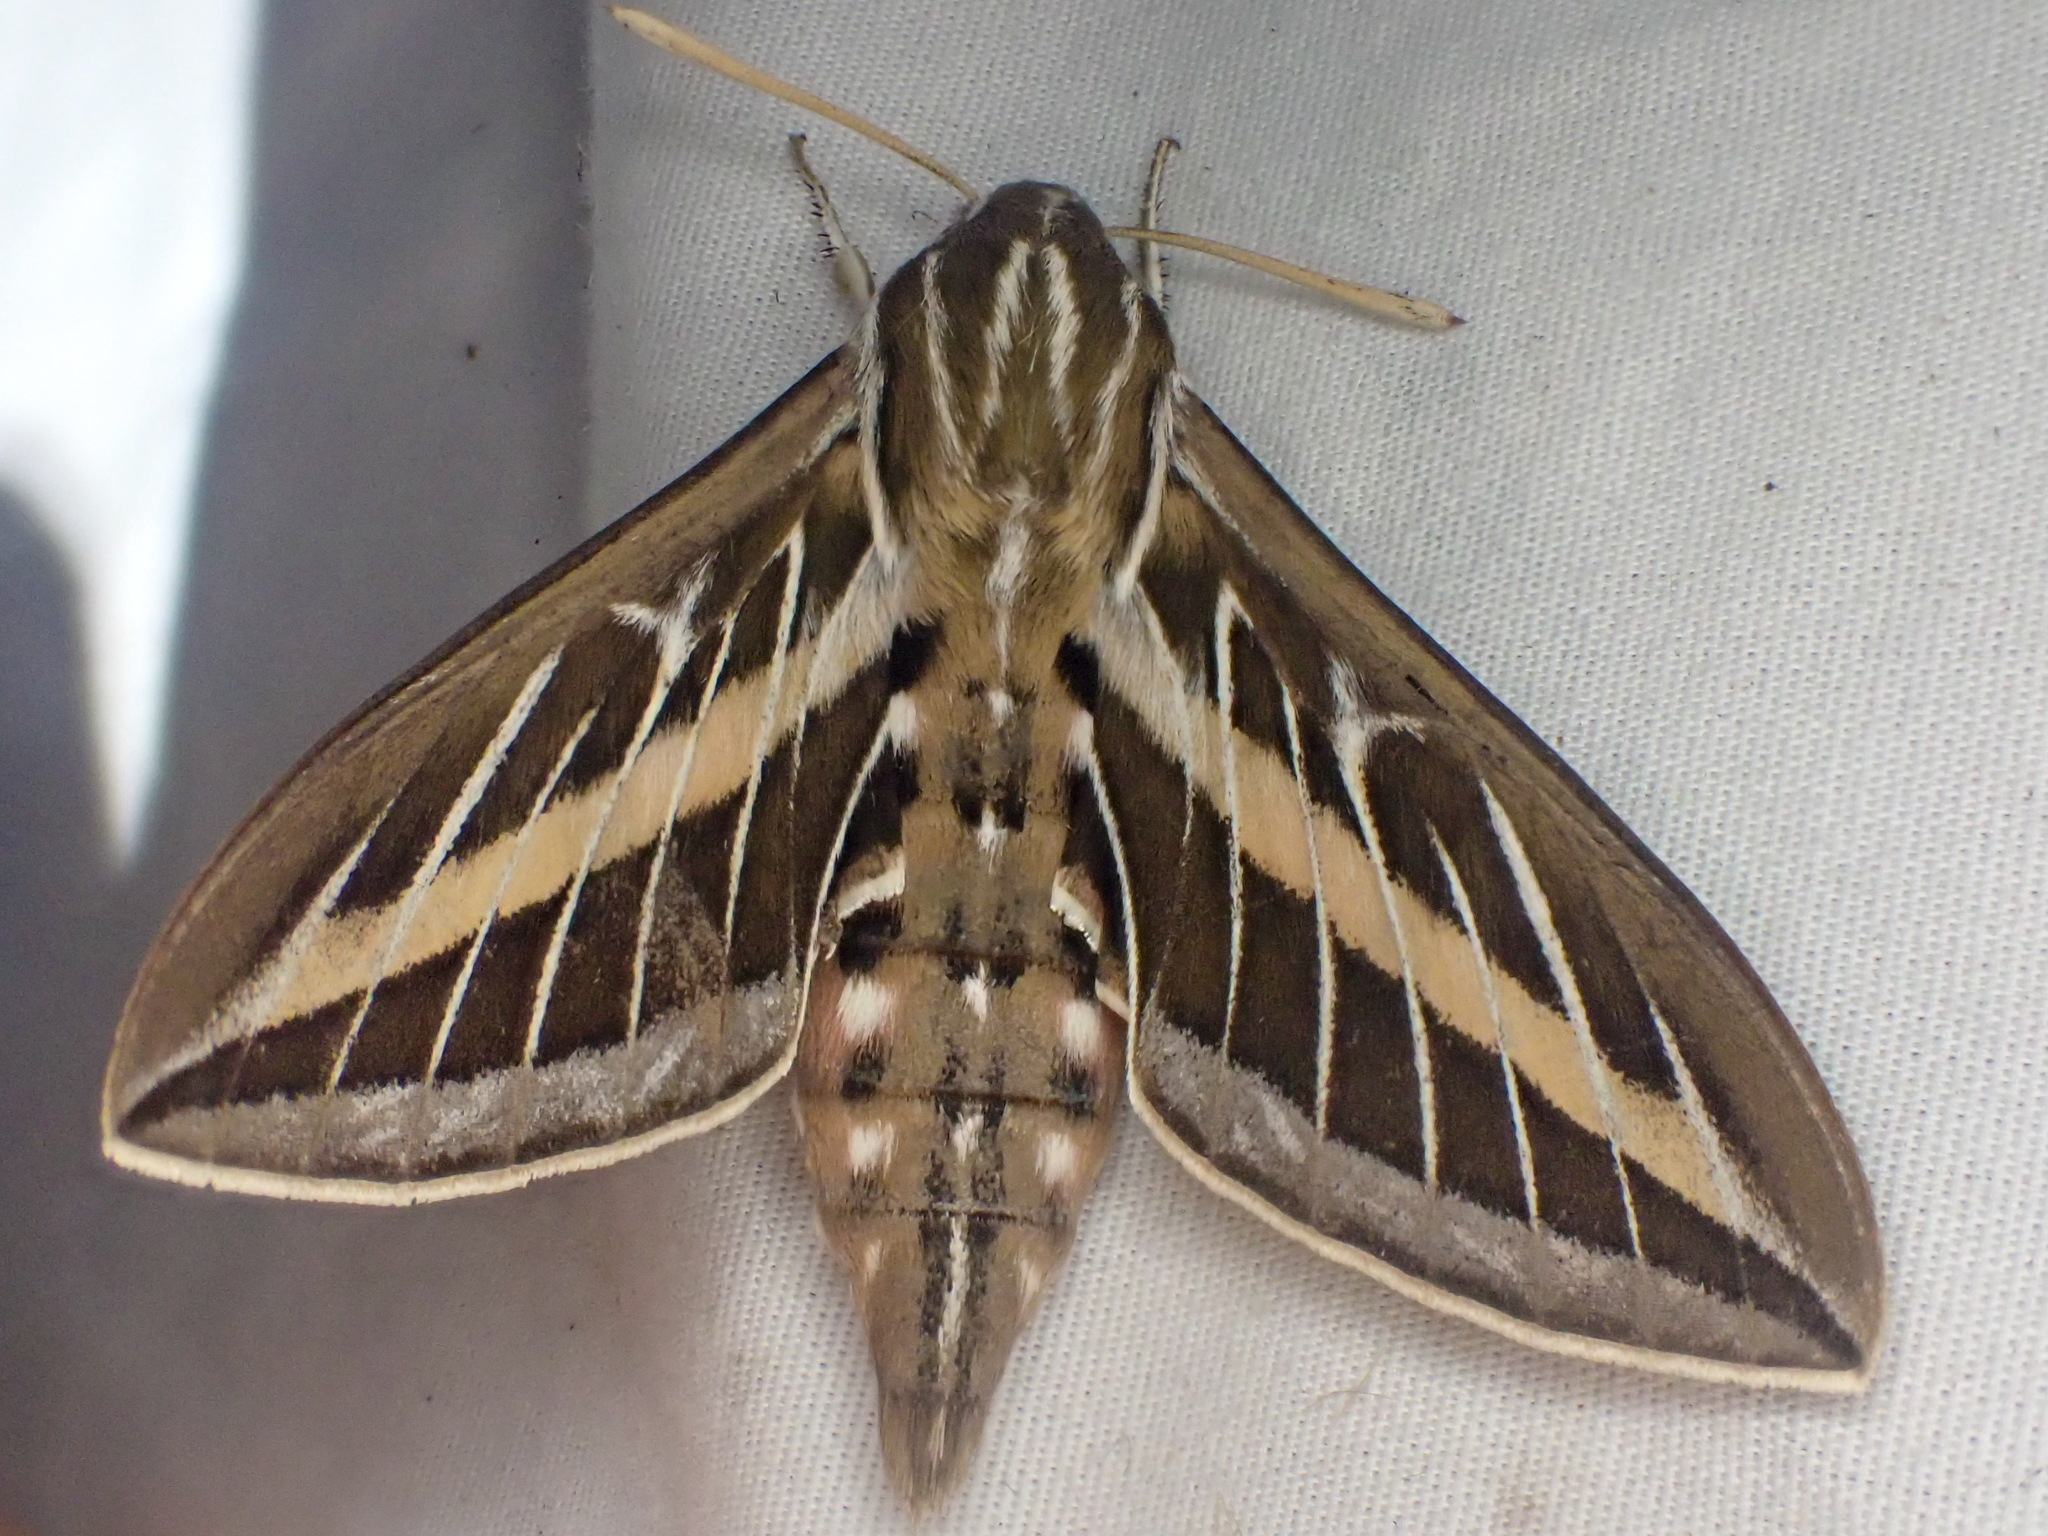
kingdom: Animalia
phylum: Arthropoda
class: Insecta
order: Lepidoptera
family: Sphingidae
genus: Hyles
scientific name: Hyles lineata
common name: White-lined sphinx
